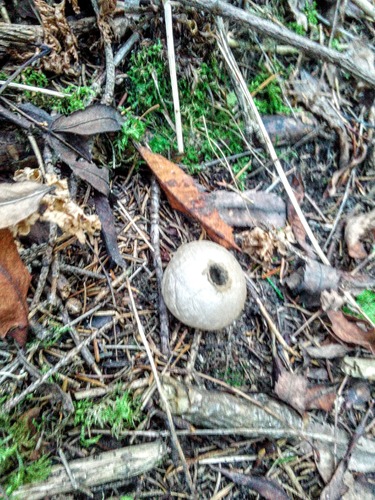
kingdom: Fungi
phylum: Basidiomycota
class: Agaricomycetes
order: Agaricales
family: Lycoperdaceae
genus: Lycoperdon
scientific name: Lycoperdon
